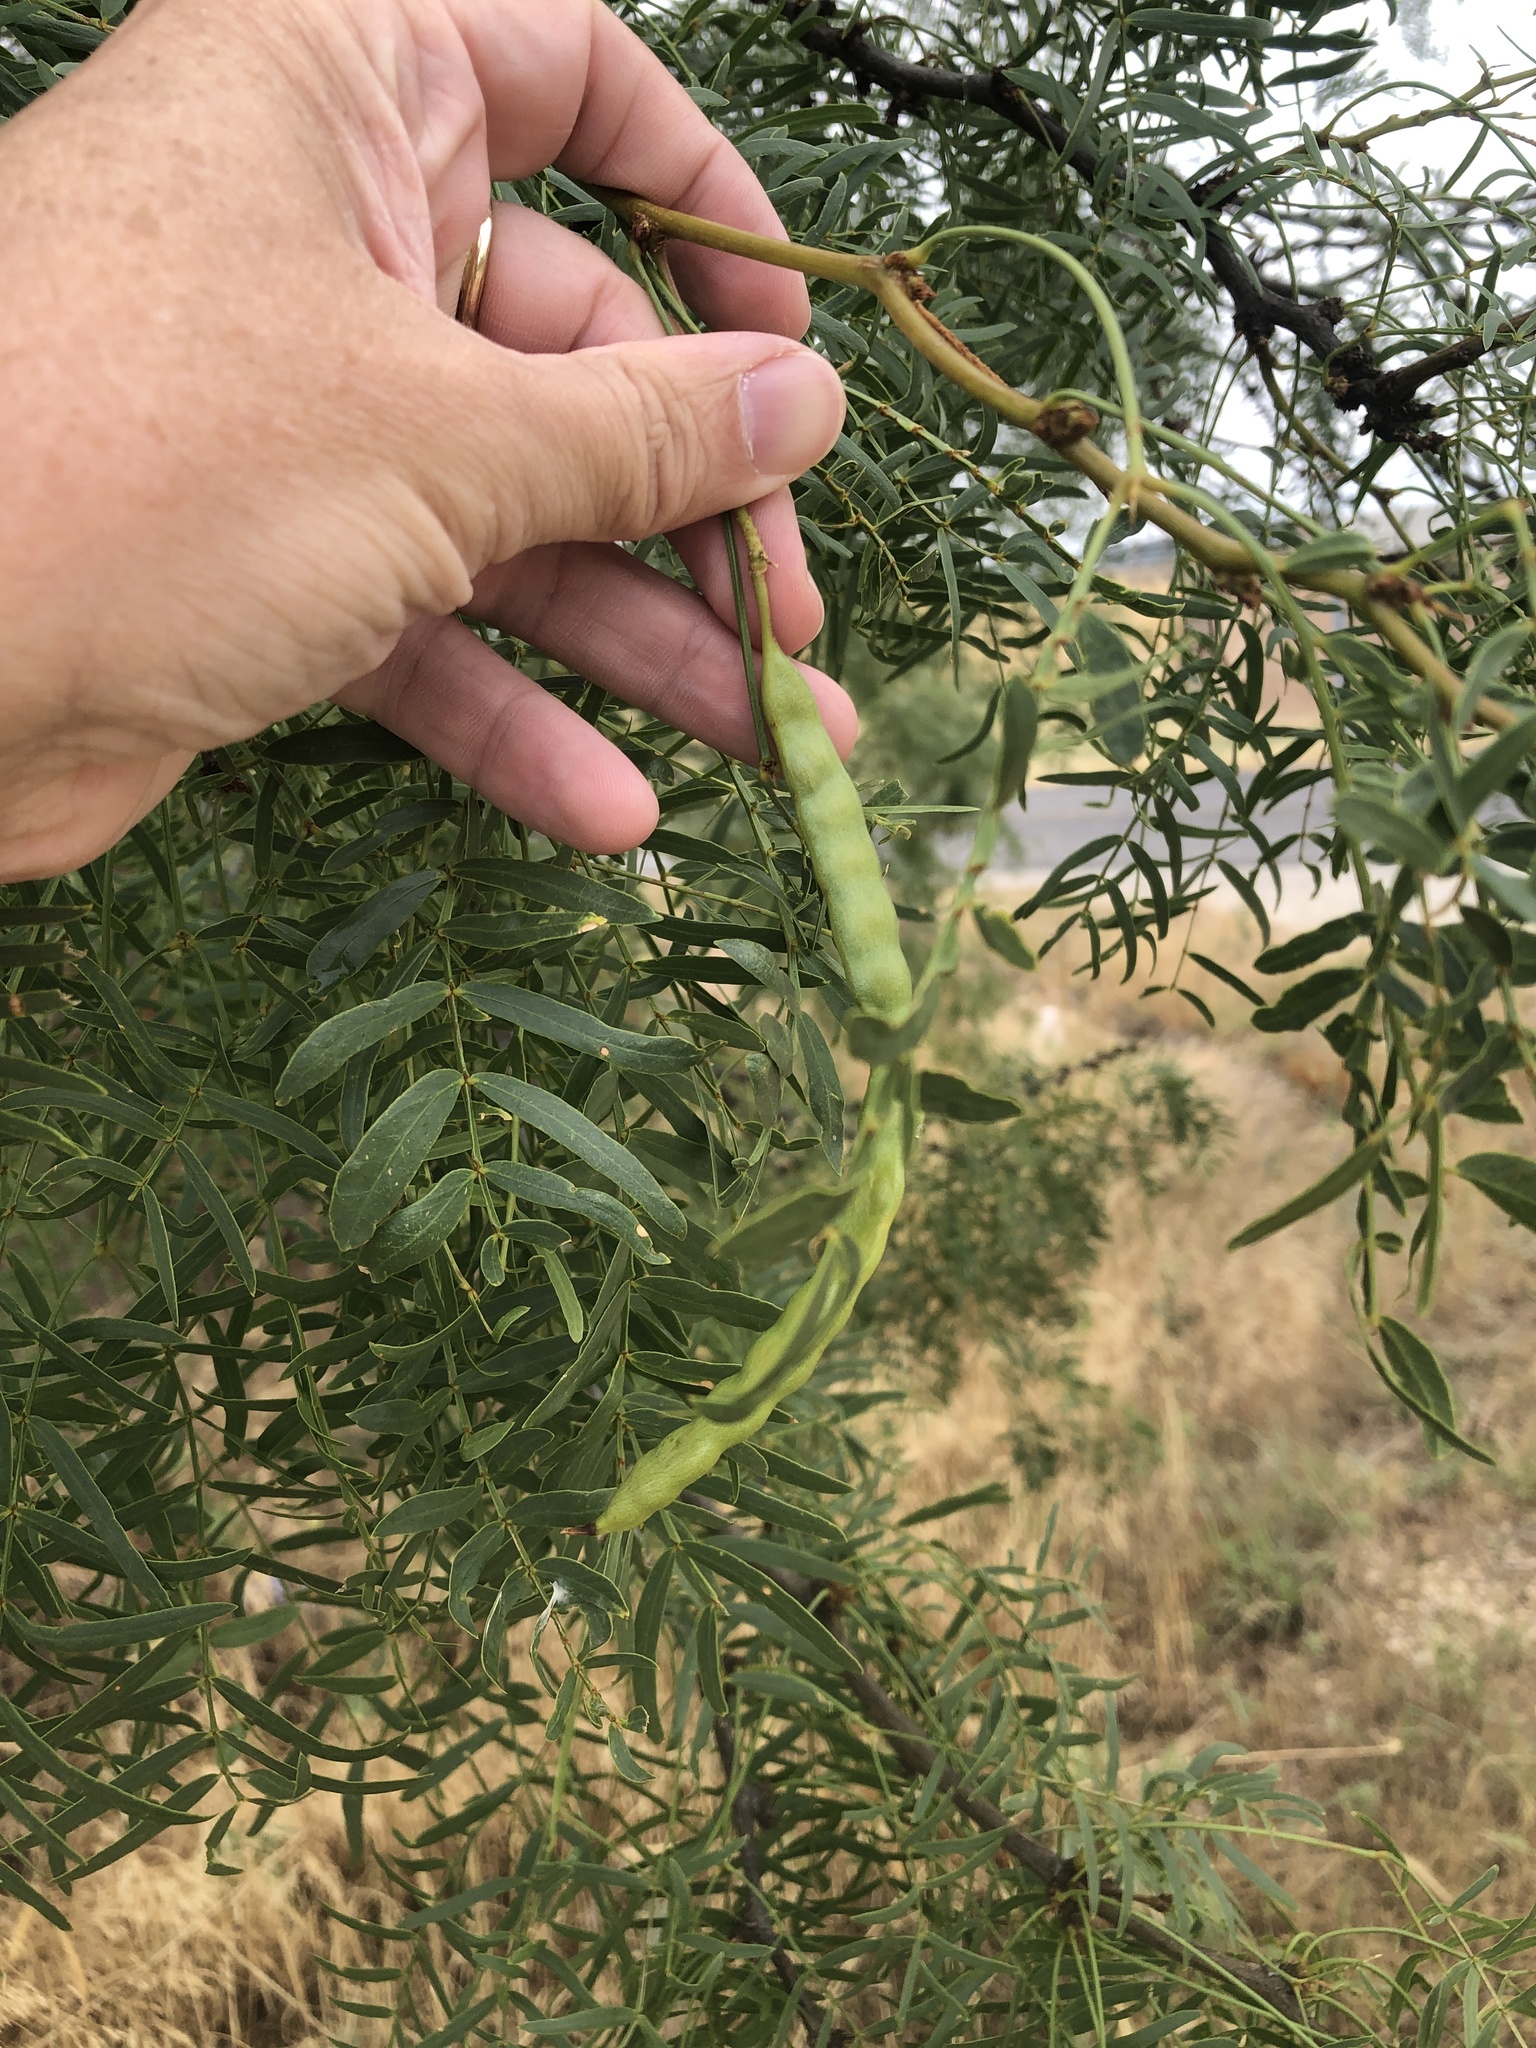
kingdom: Plantae
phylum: Tracheophyta
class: Magnoliopsida
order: Fabales
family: Fabaceae
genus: Prosopis
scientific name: Prosopis glandulosa
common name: Honey mesquite
